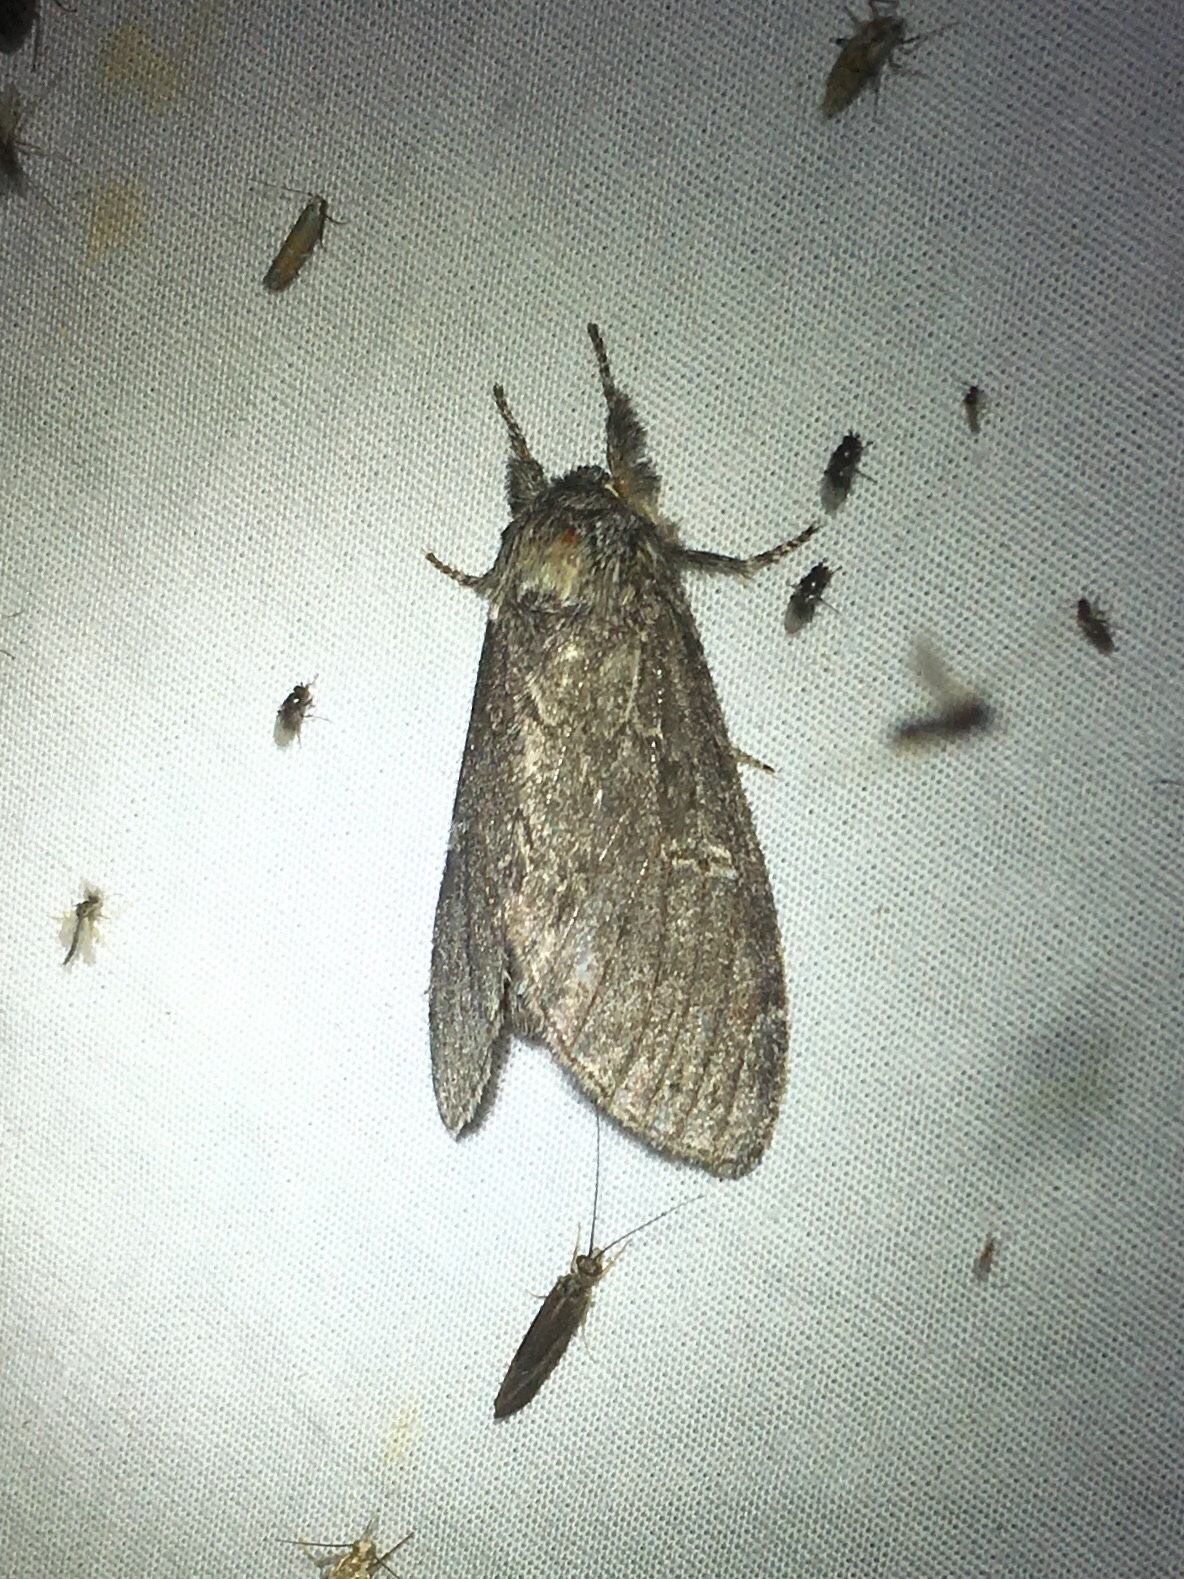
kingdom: Animalia
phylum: Arthropoda
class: Insecta
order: Lepidoptera
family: Notodontidae
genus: Notodonta
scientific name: Notodonta torva
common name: Large dark prominent
